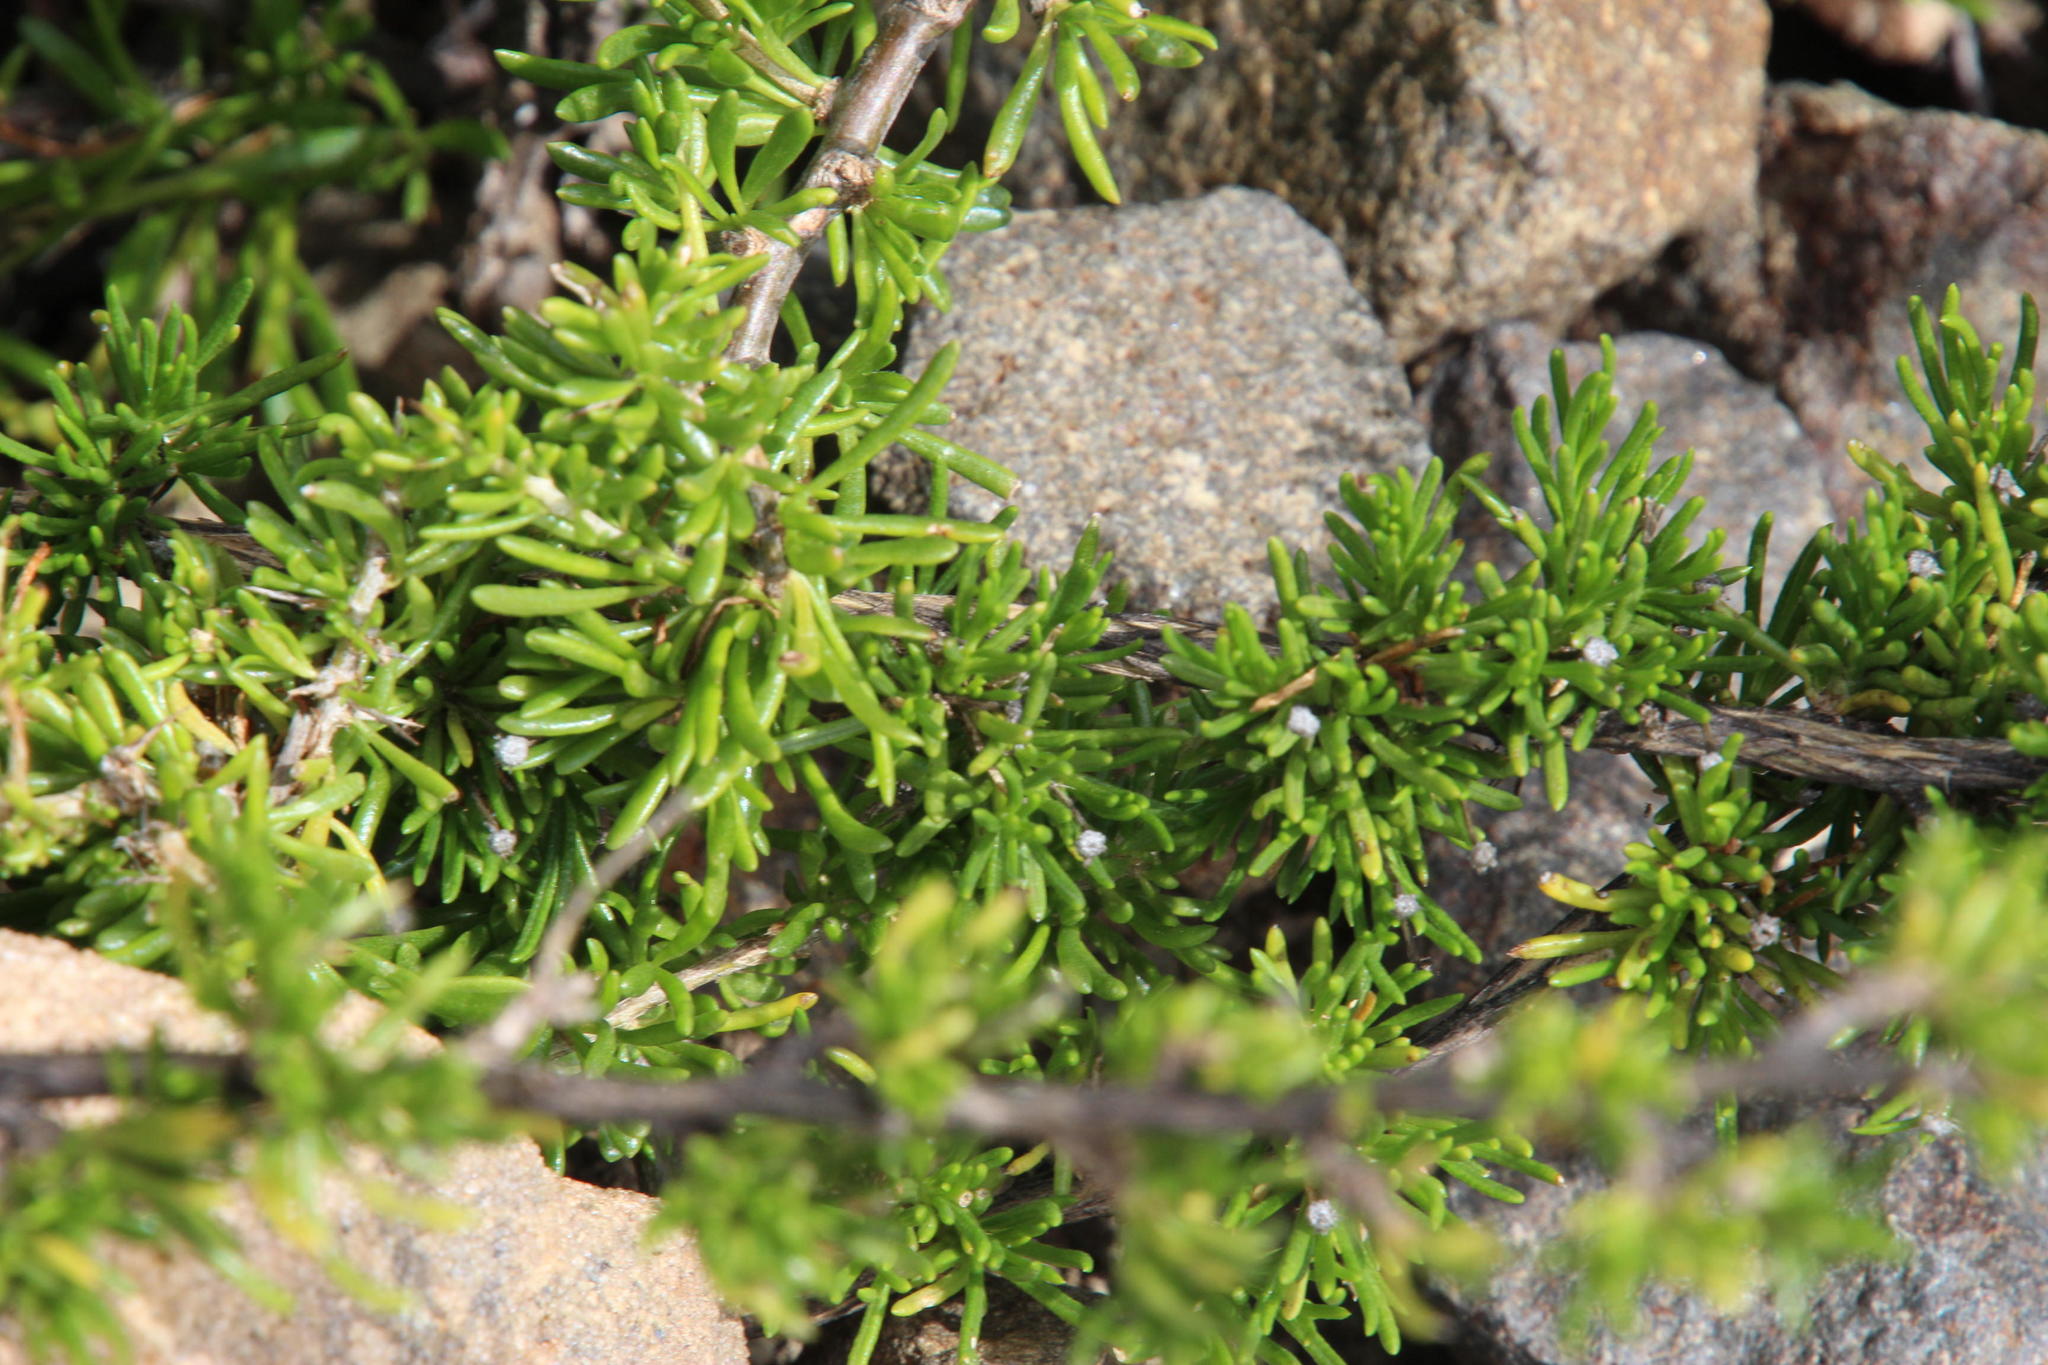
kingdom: Plantae
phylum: Tracheophyta
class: Magnoliopsida
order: Solanales
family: Solanaceae
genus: Lycium
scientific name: Lycium cinereum
